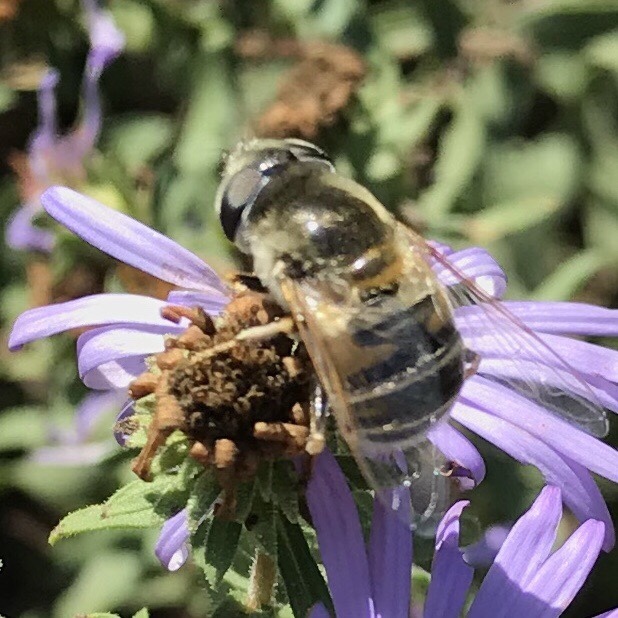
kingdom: Animalia
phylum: Arthropoda
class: Insecta
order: Diptera
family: Syrphidae
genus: Eristalis
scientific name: Eristalis stipator
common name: Yellow-shouldered drone fly
